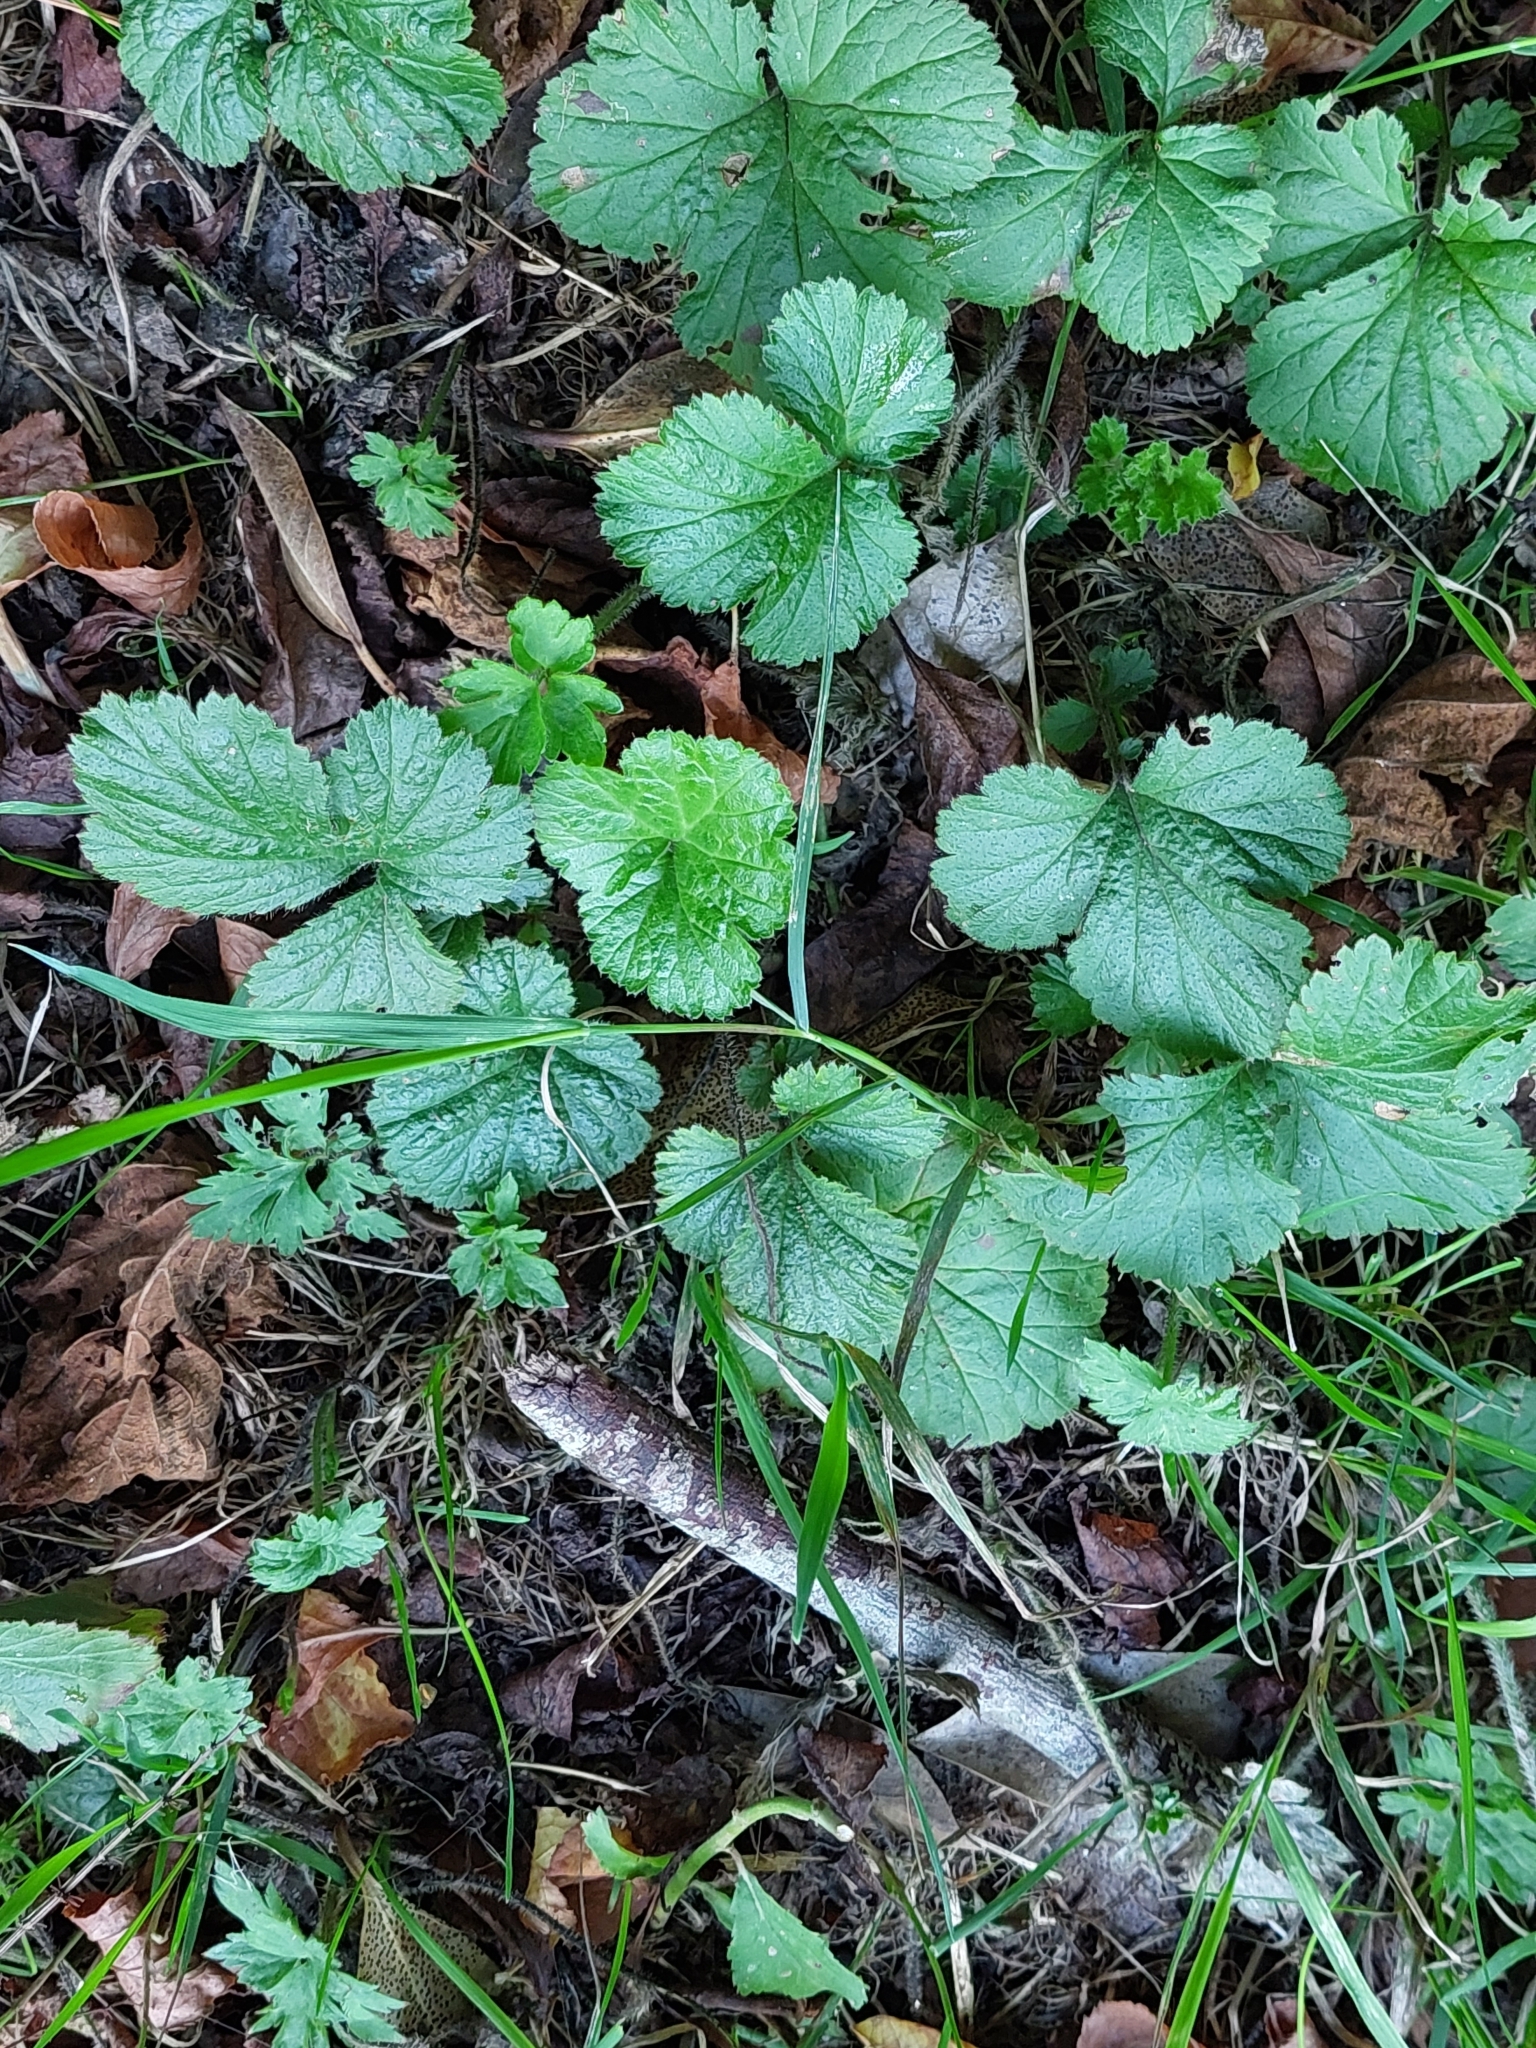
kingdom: Plantae
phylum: Tracheophyta
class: Magnoliopsida
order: Rosales
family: Rosaceae
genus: Geum
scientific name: Geum urbanum
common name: Wood avens
